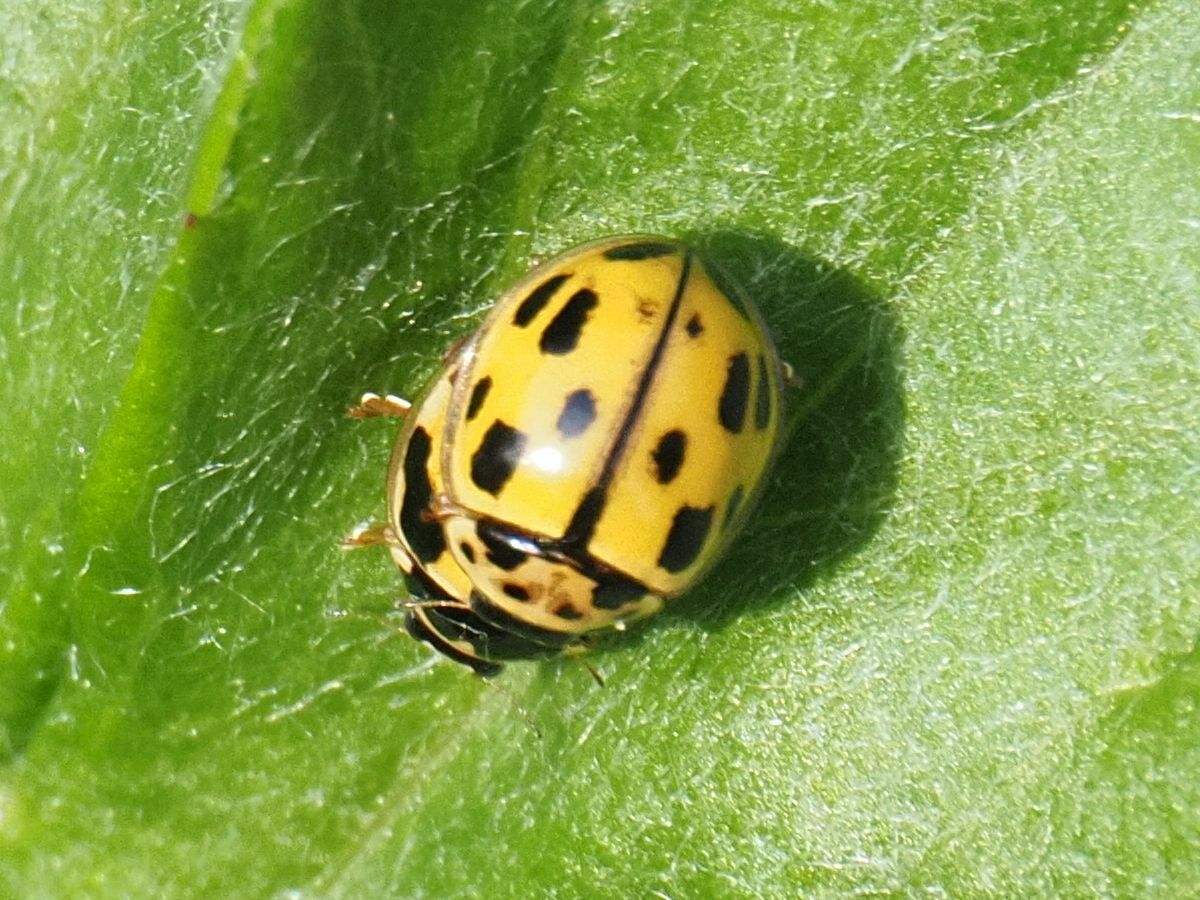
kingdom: Animalia
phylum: Arthropoda
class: Insecta
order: Coleoptera
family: Coccinellidae
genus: Propylaea
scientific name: Propylaea quatuordecimpunctata
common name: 14-spotted ladybird beetle
